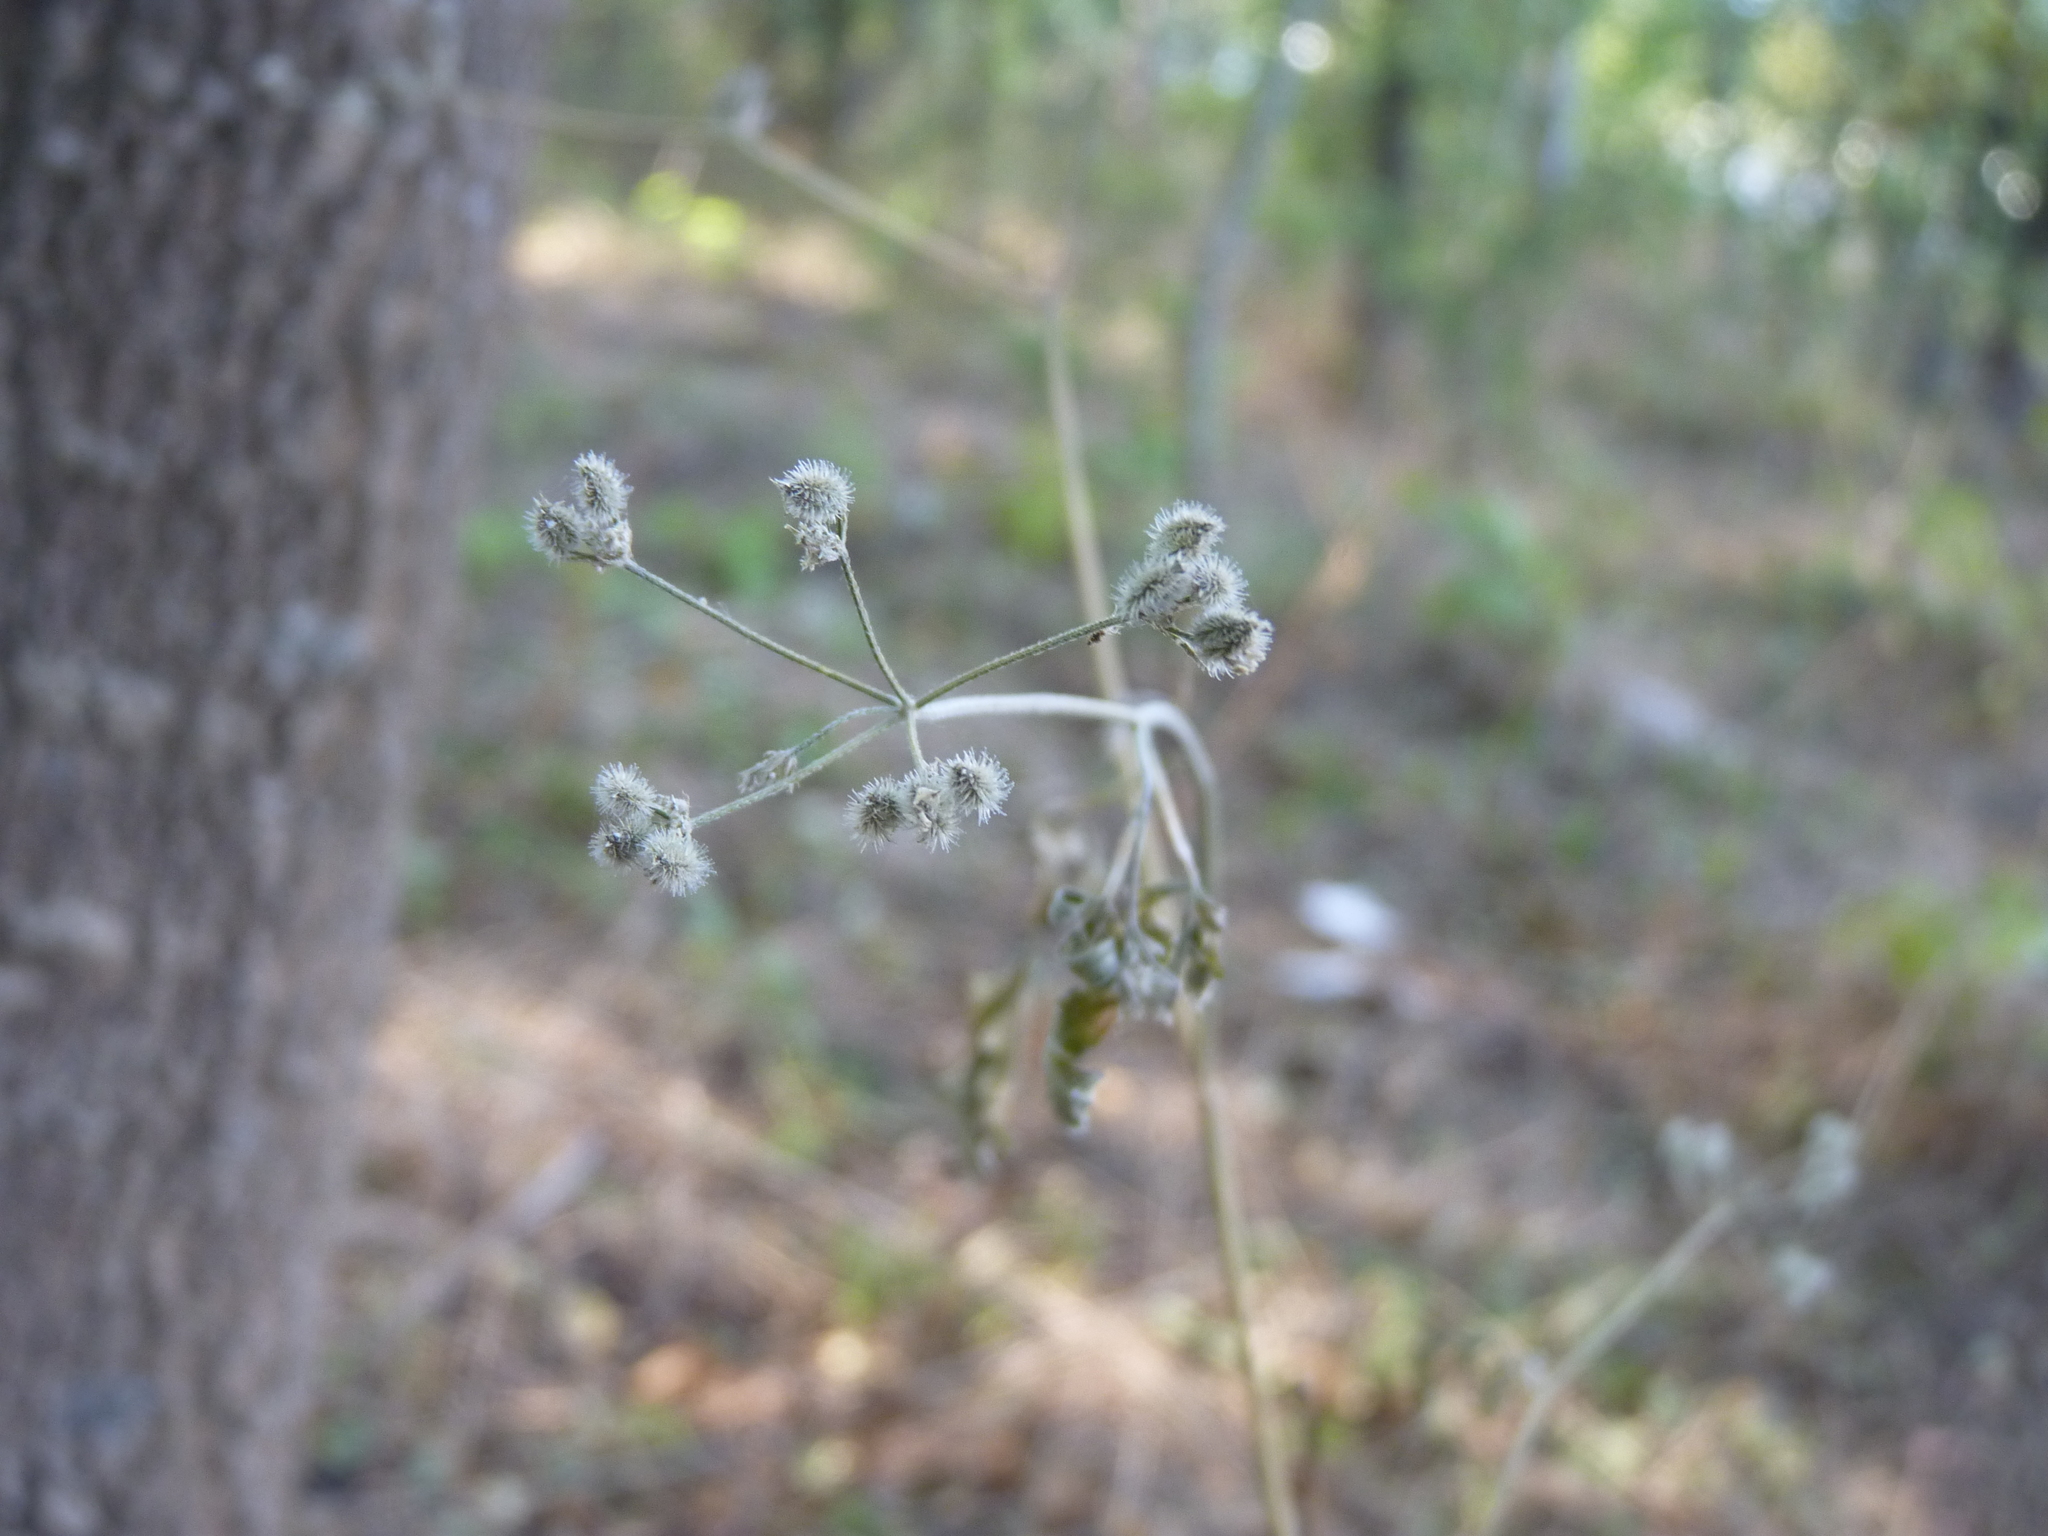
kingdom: Plantae
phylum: Tracheophyta
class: Magnoliopsida
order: Apiales
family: Apiaceae
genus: Torilis
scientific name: Torilis arvensis
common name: Spreading hedge-parsley
